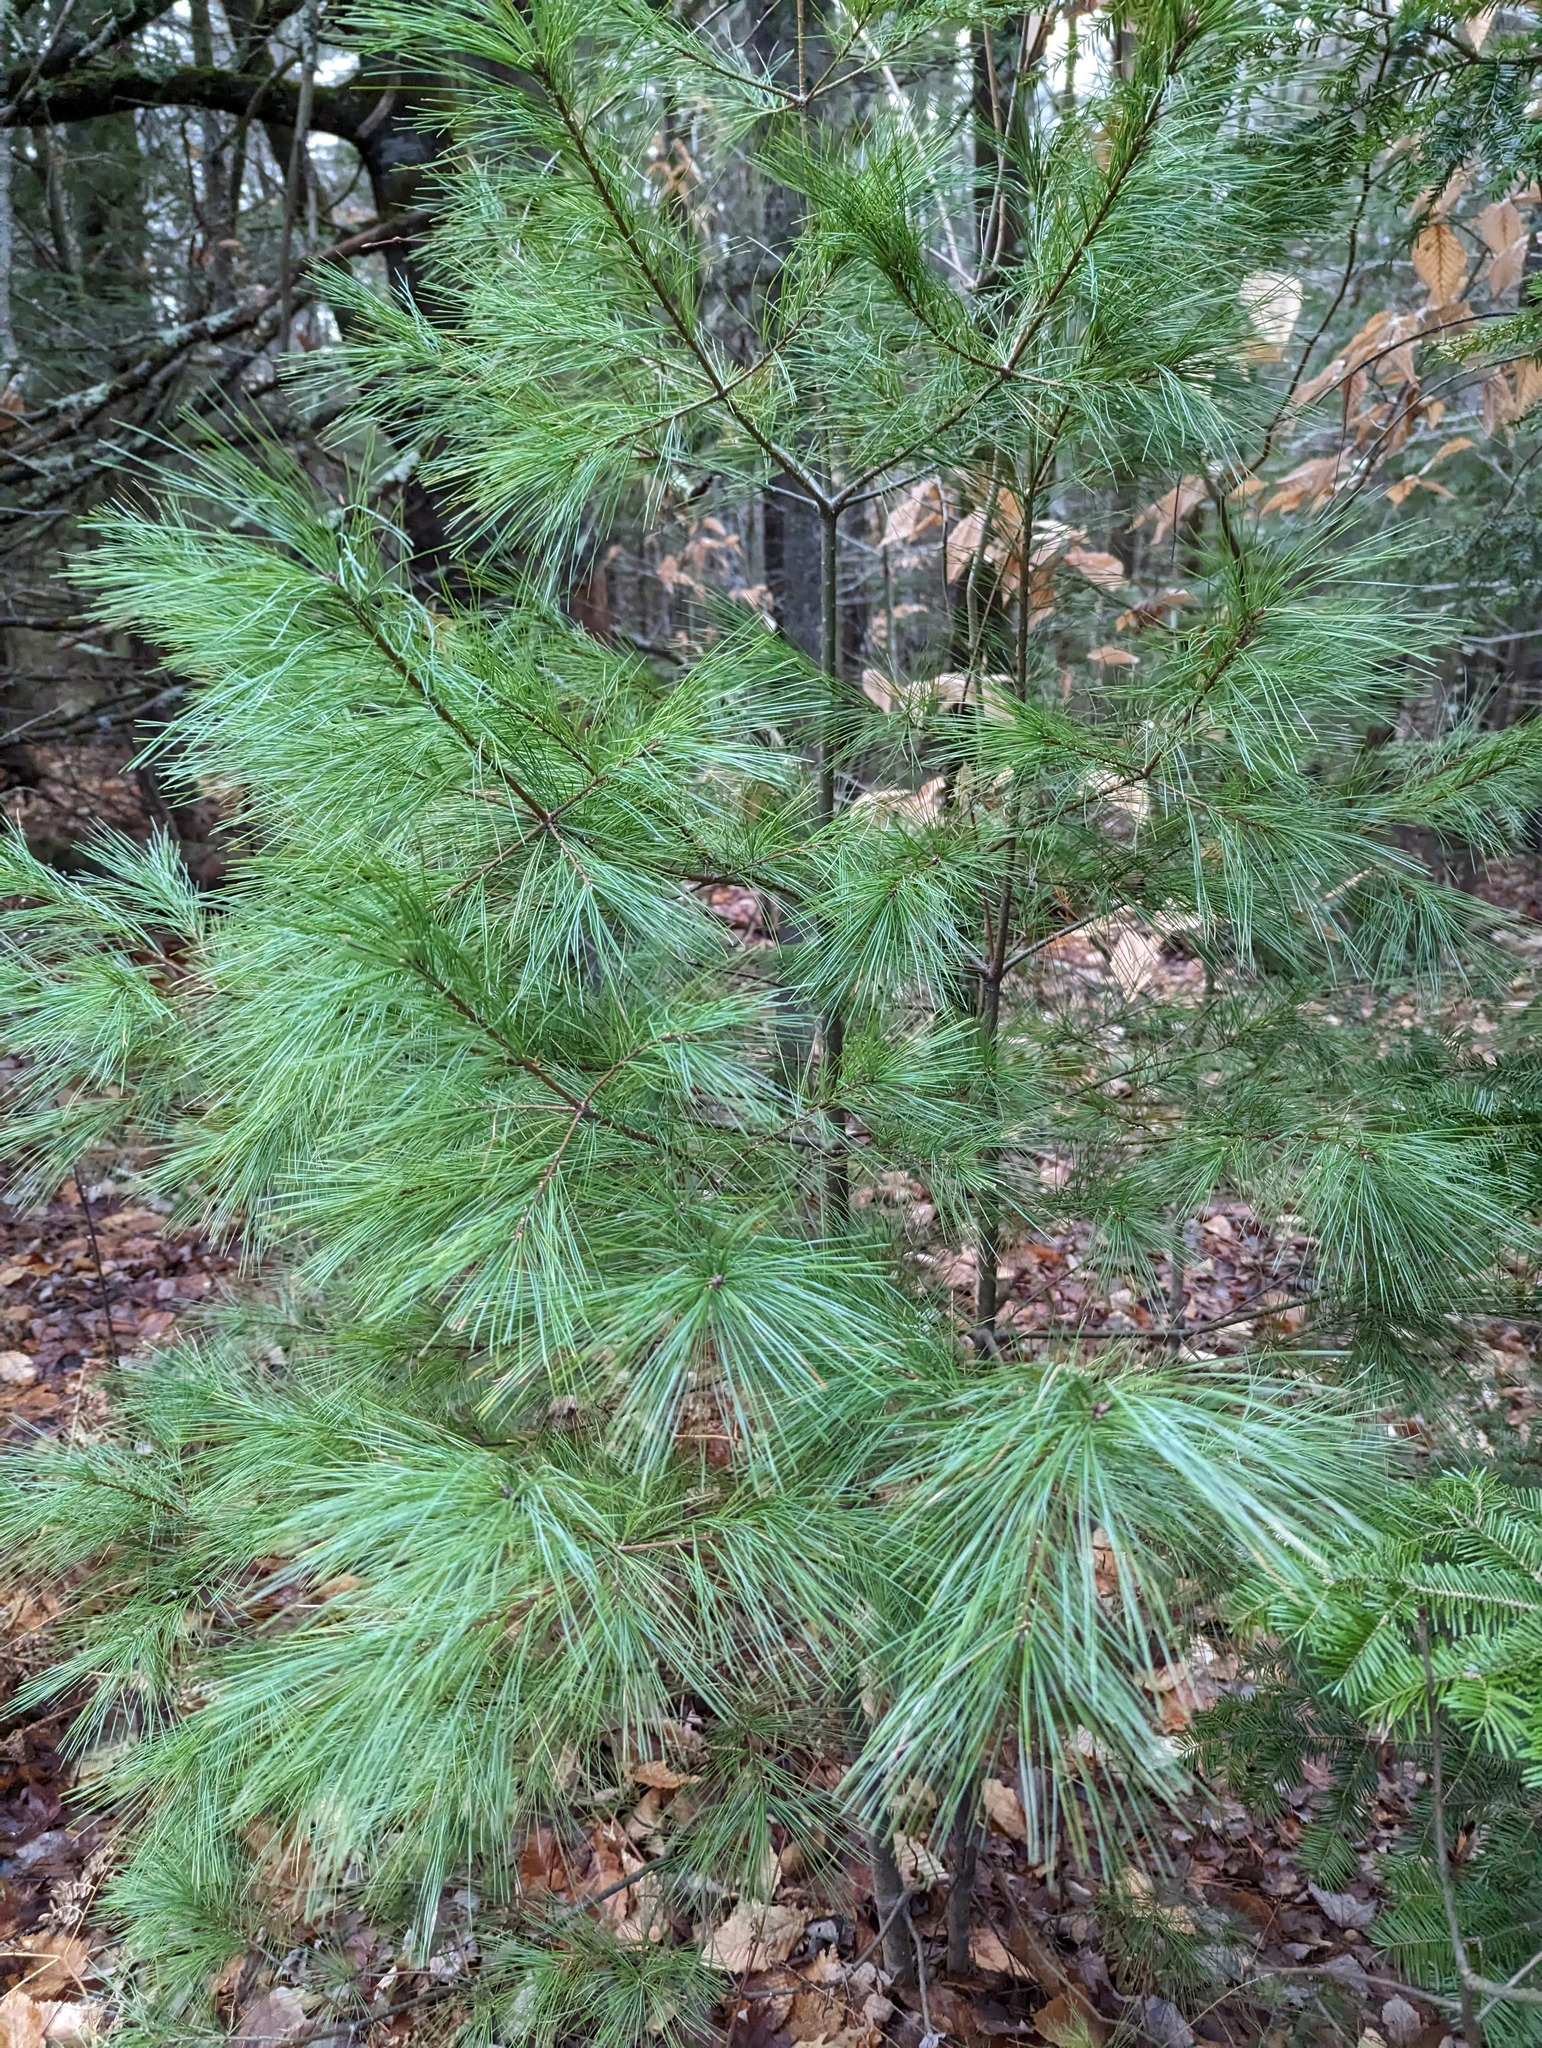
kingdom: Plantae
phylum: Tracheophyta
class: Pinopsida
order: Pinales
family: Pinaceae
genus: Pinus
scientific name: Pinus strobus
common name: Weymouth pine
